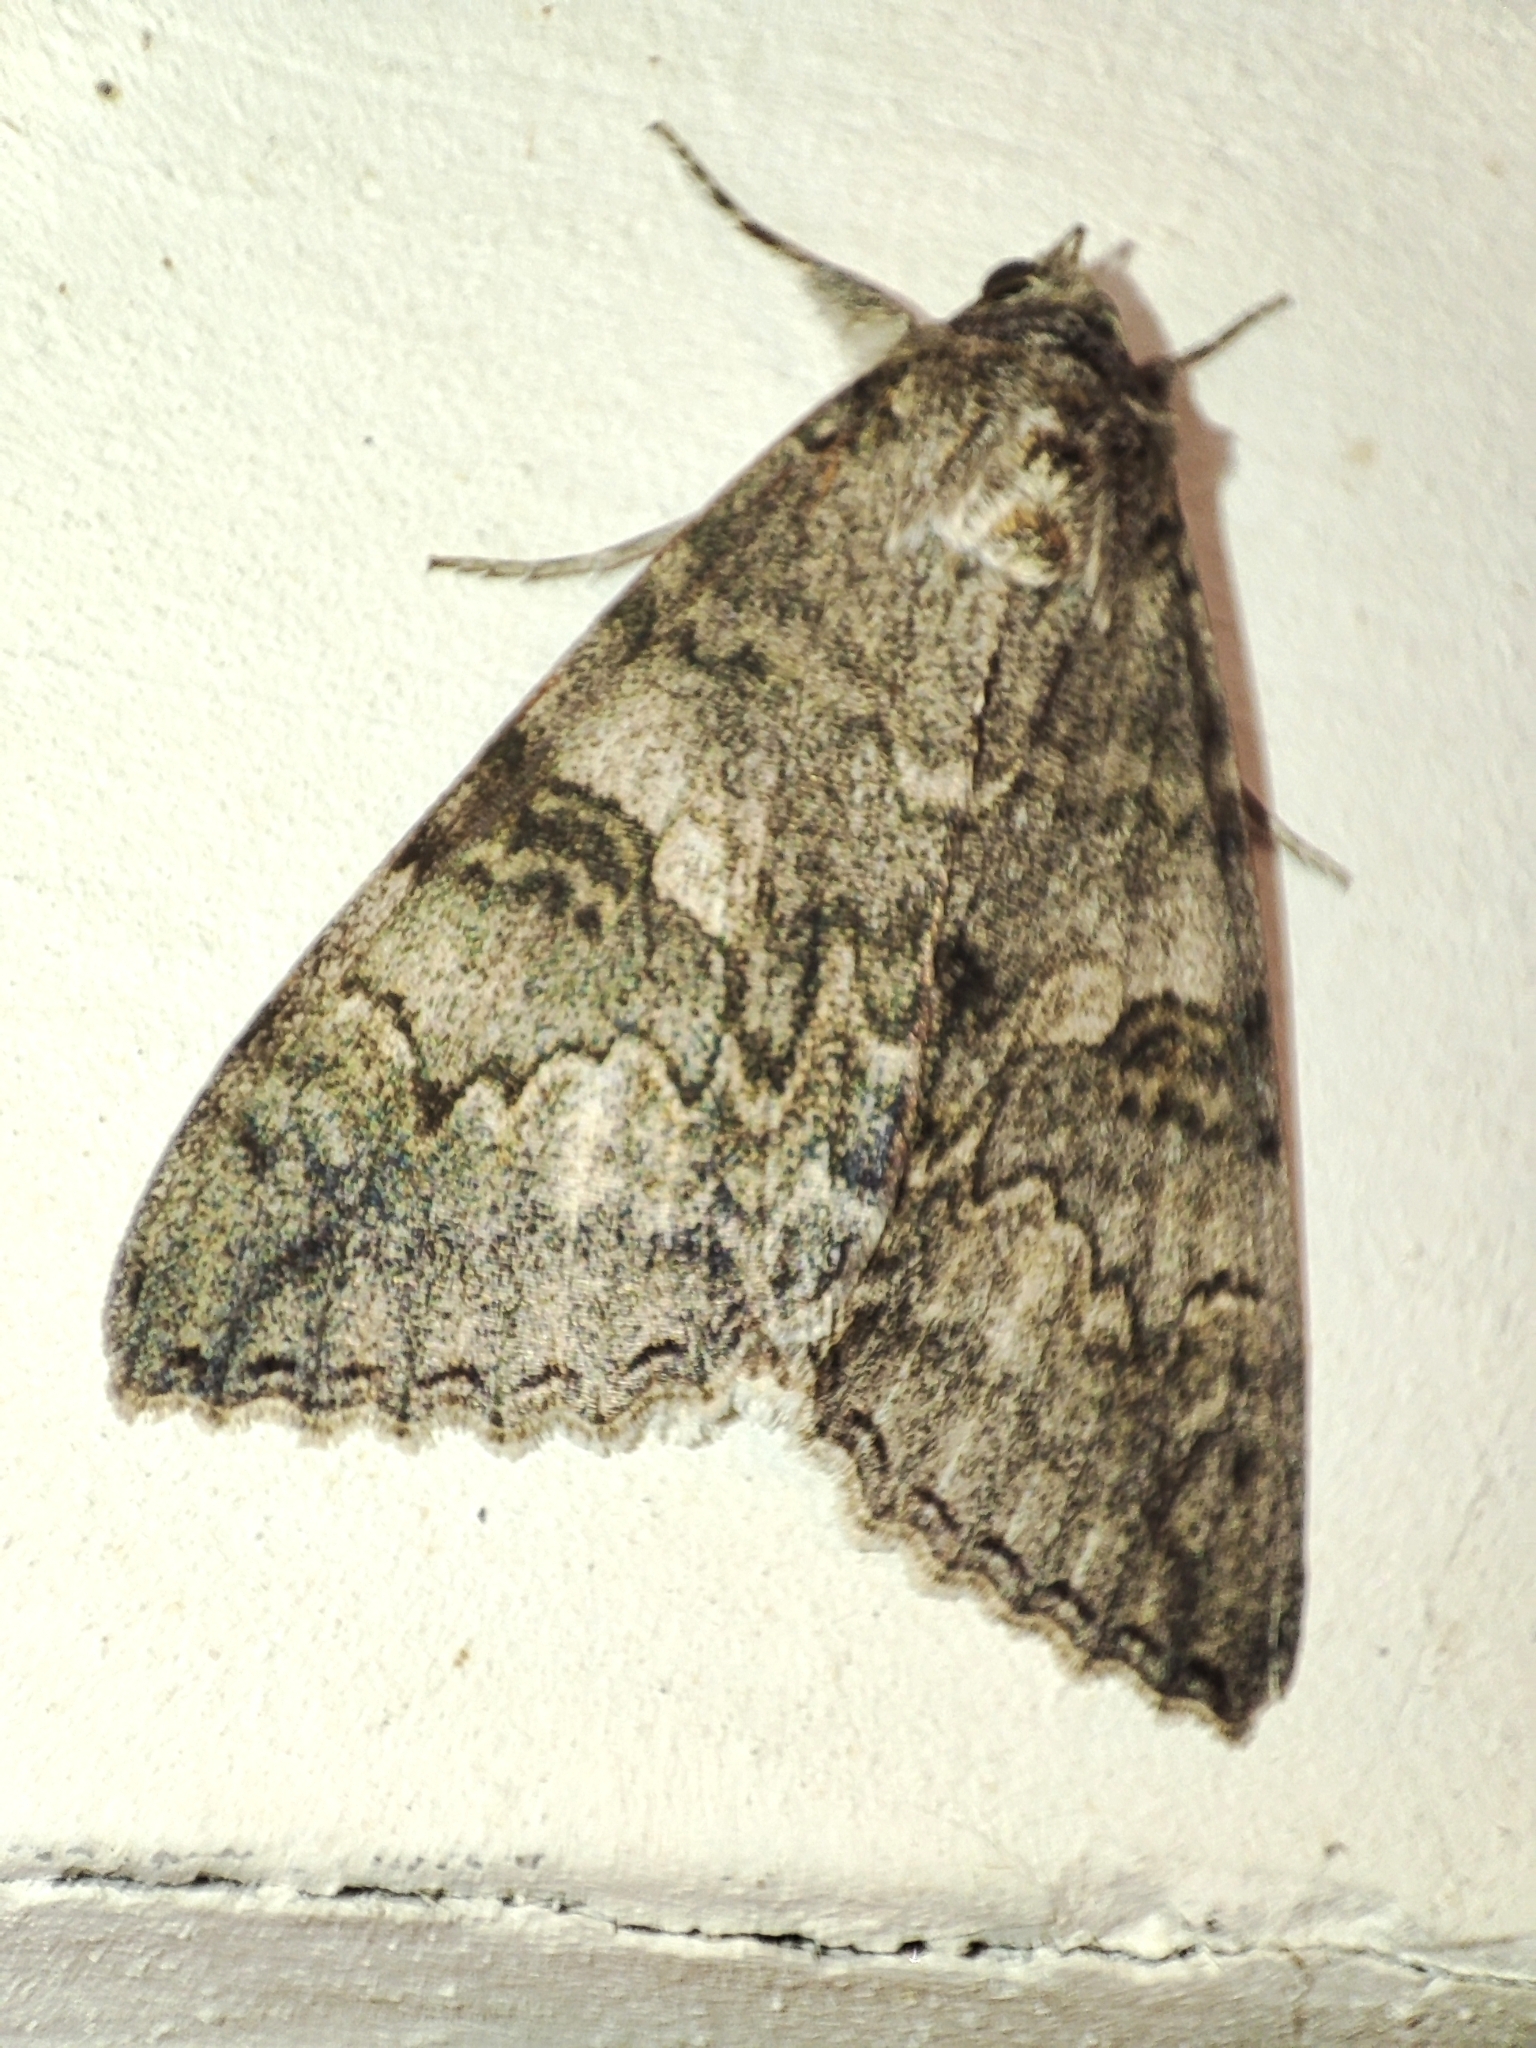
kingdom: Animalia
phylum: Arthropoda
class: Insecta
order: Lepidoptera
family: Erebidae
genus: Catocala
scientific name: Catocala nupta
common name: Red underwing
